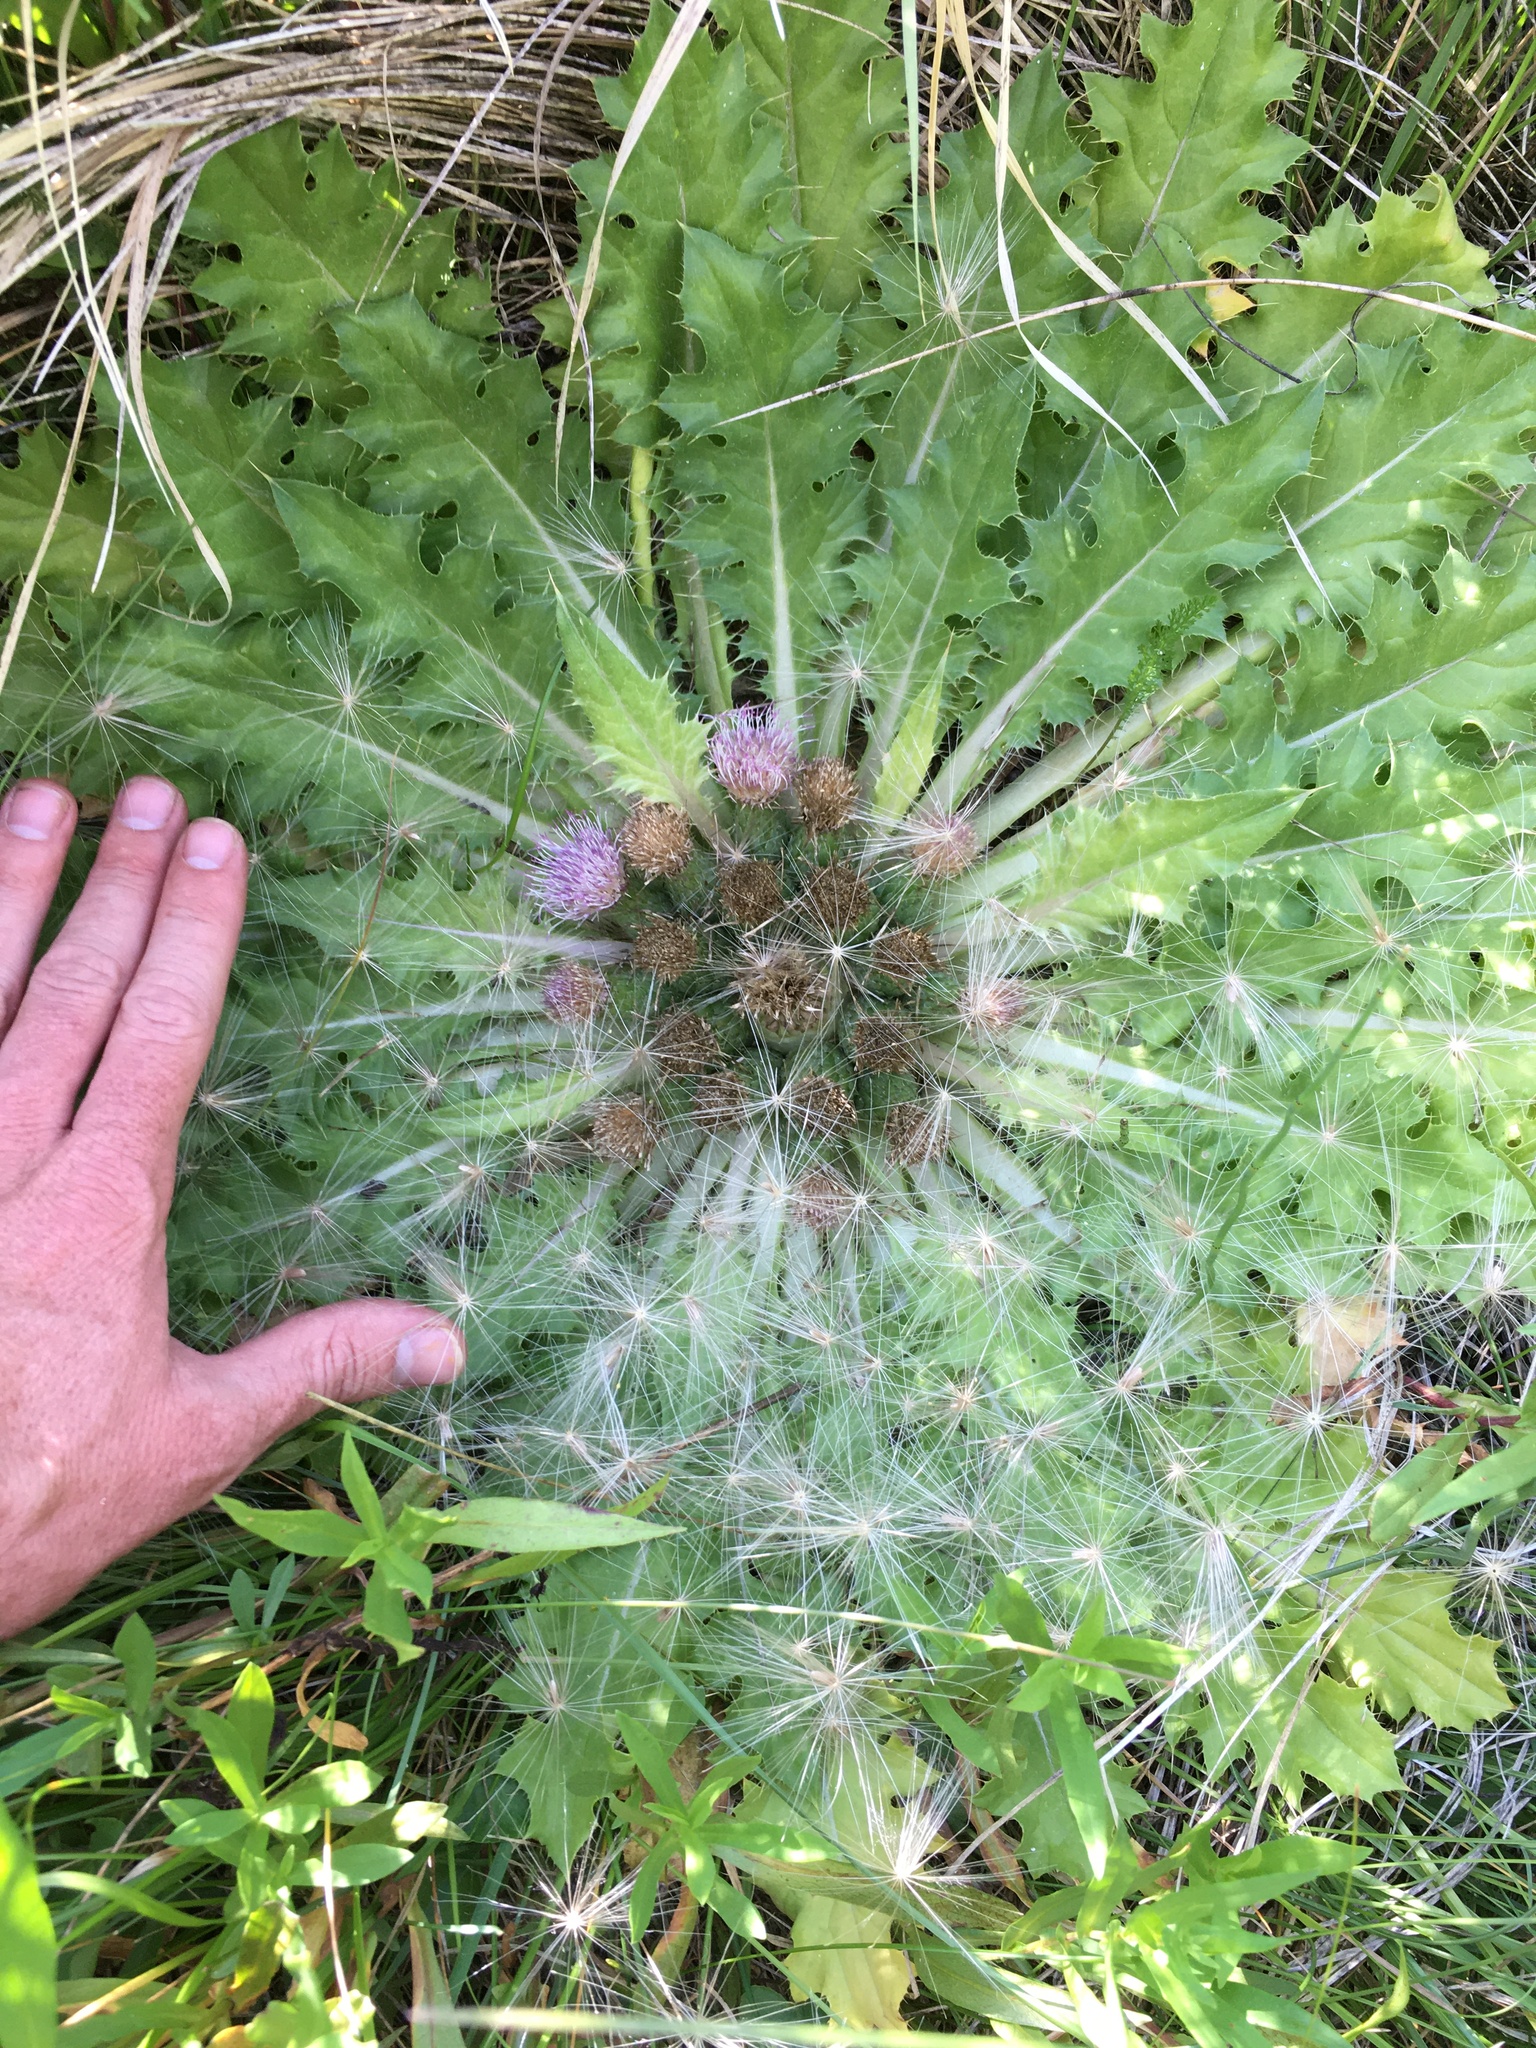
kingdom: Plantae
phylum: Tracheophyta
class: Magnoliopsida
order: Asterales
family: Asteraceae
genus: Cirsium
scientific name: Cirsium congdonii
